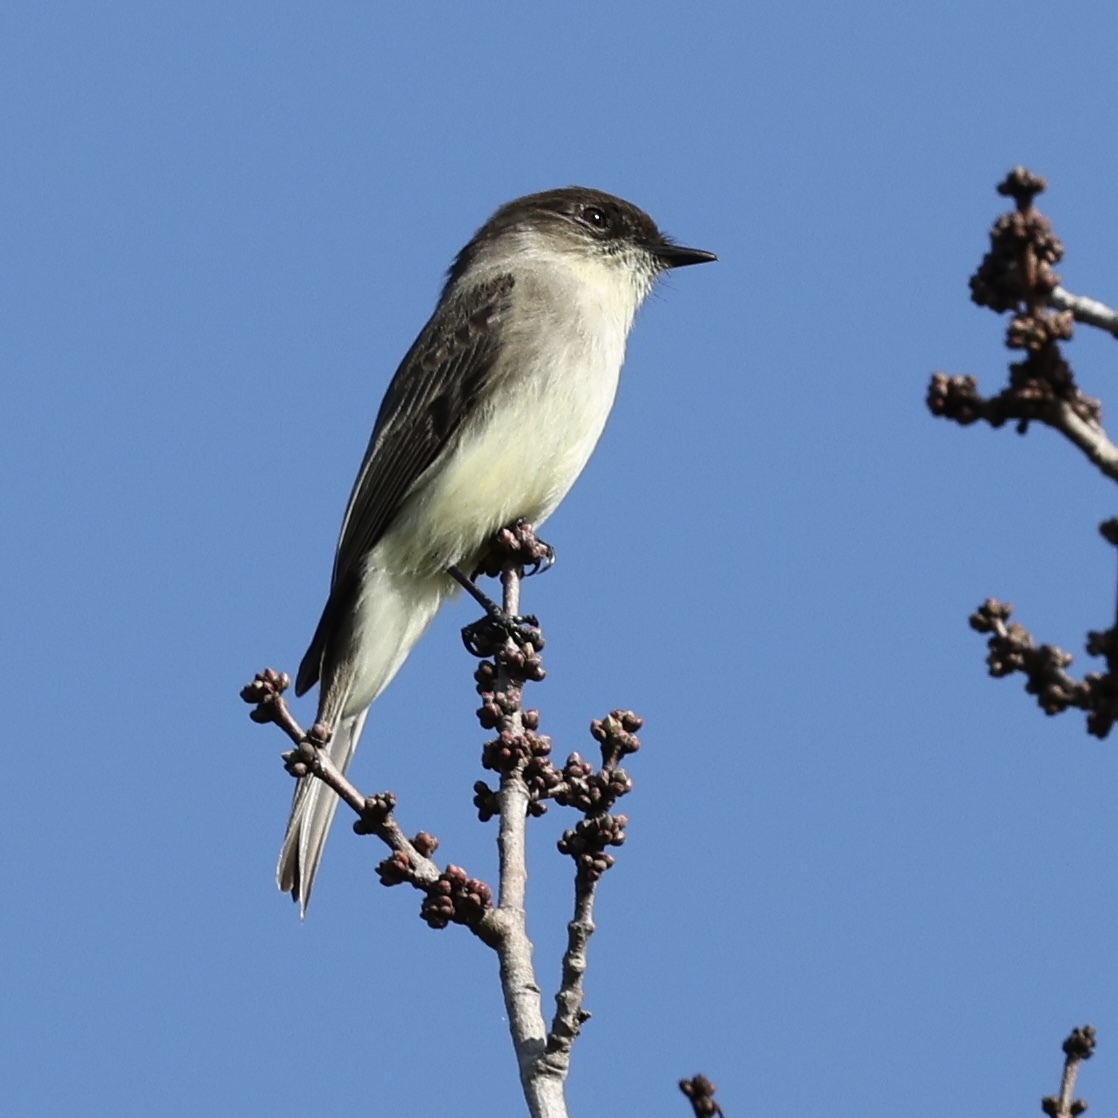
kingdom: Animalia
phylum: Chordata
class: Aves
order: Passeriformes
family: Tyrannidae
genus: Sayornis
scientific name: Sayornis phoebe
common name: Eastern phoebe
